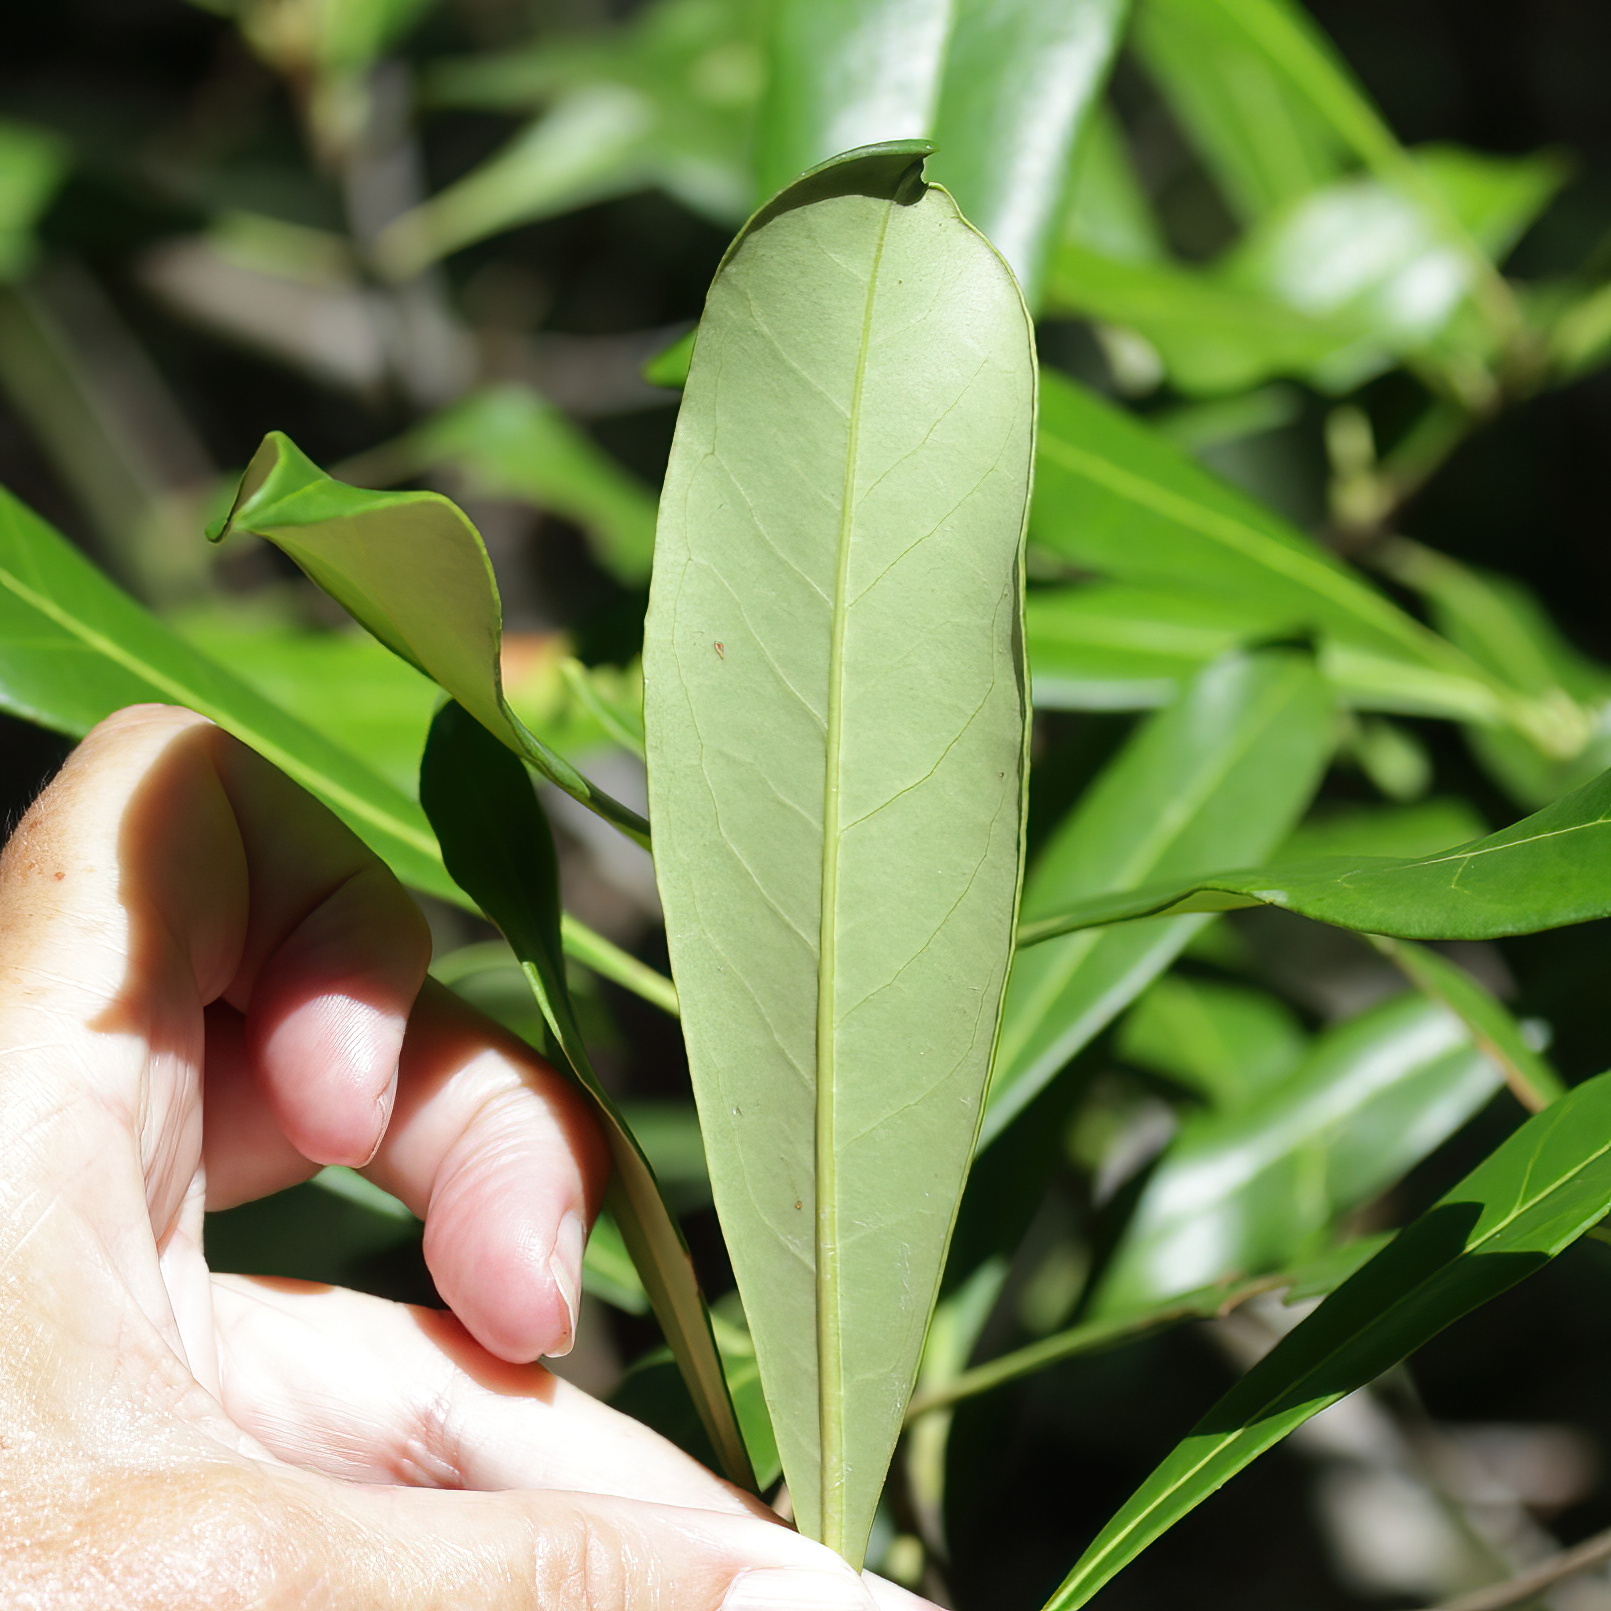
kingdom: Plantae
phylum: Tracheophyta
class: Magnoliopsida
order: Lamiales
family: Oleaceae
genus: Cartrema
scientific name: Cartrema americana
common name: Devilwood
